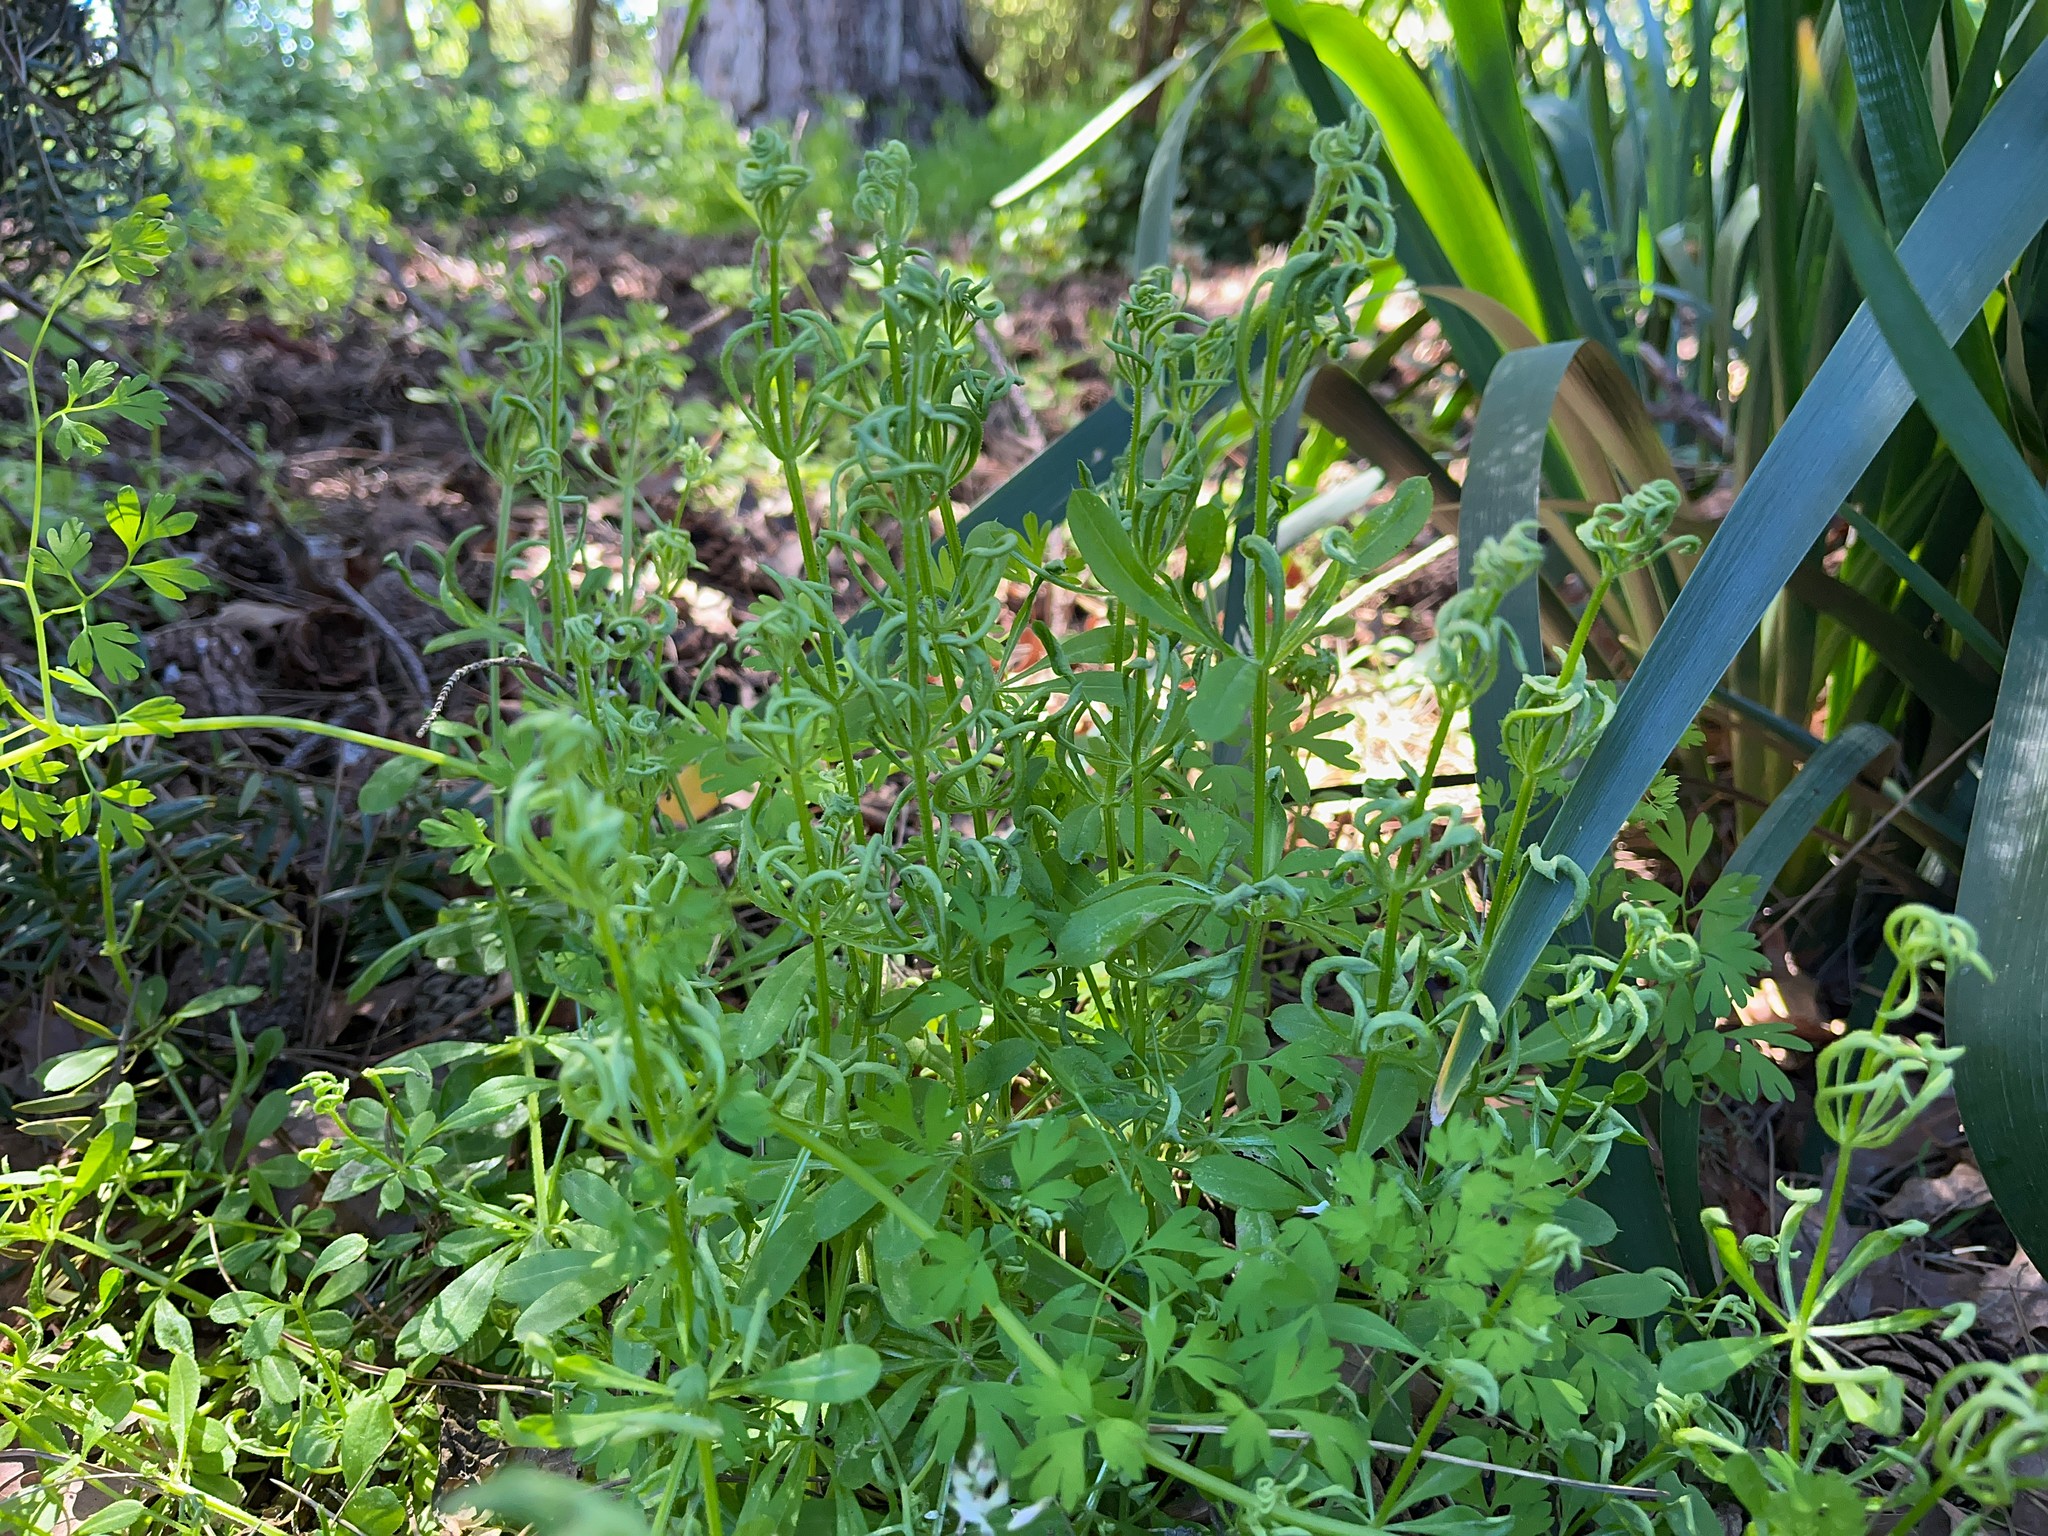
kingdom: Animalia
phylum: Arthropoda
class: Arachnida
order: Trombidiformes
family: Eriophyidae
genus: Cecidophyes
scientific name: Cecidophyes rouhollahi
